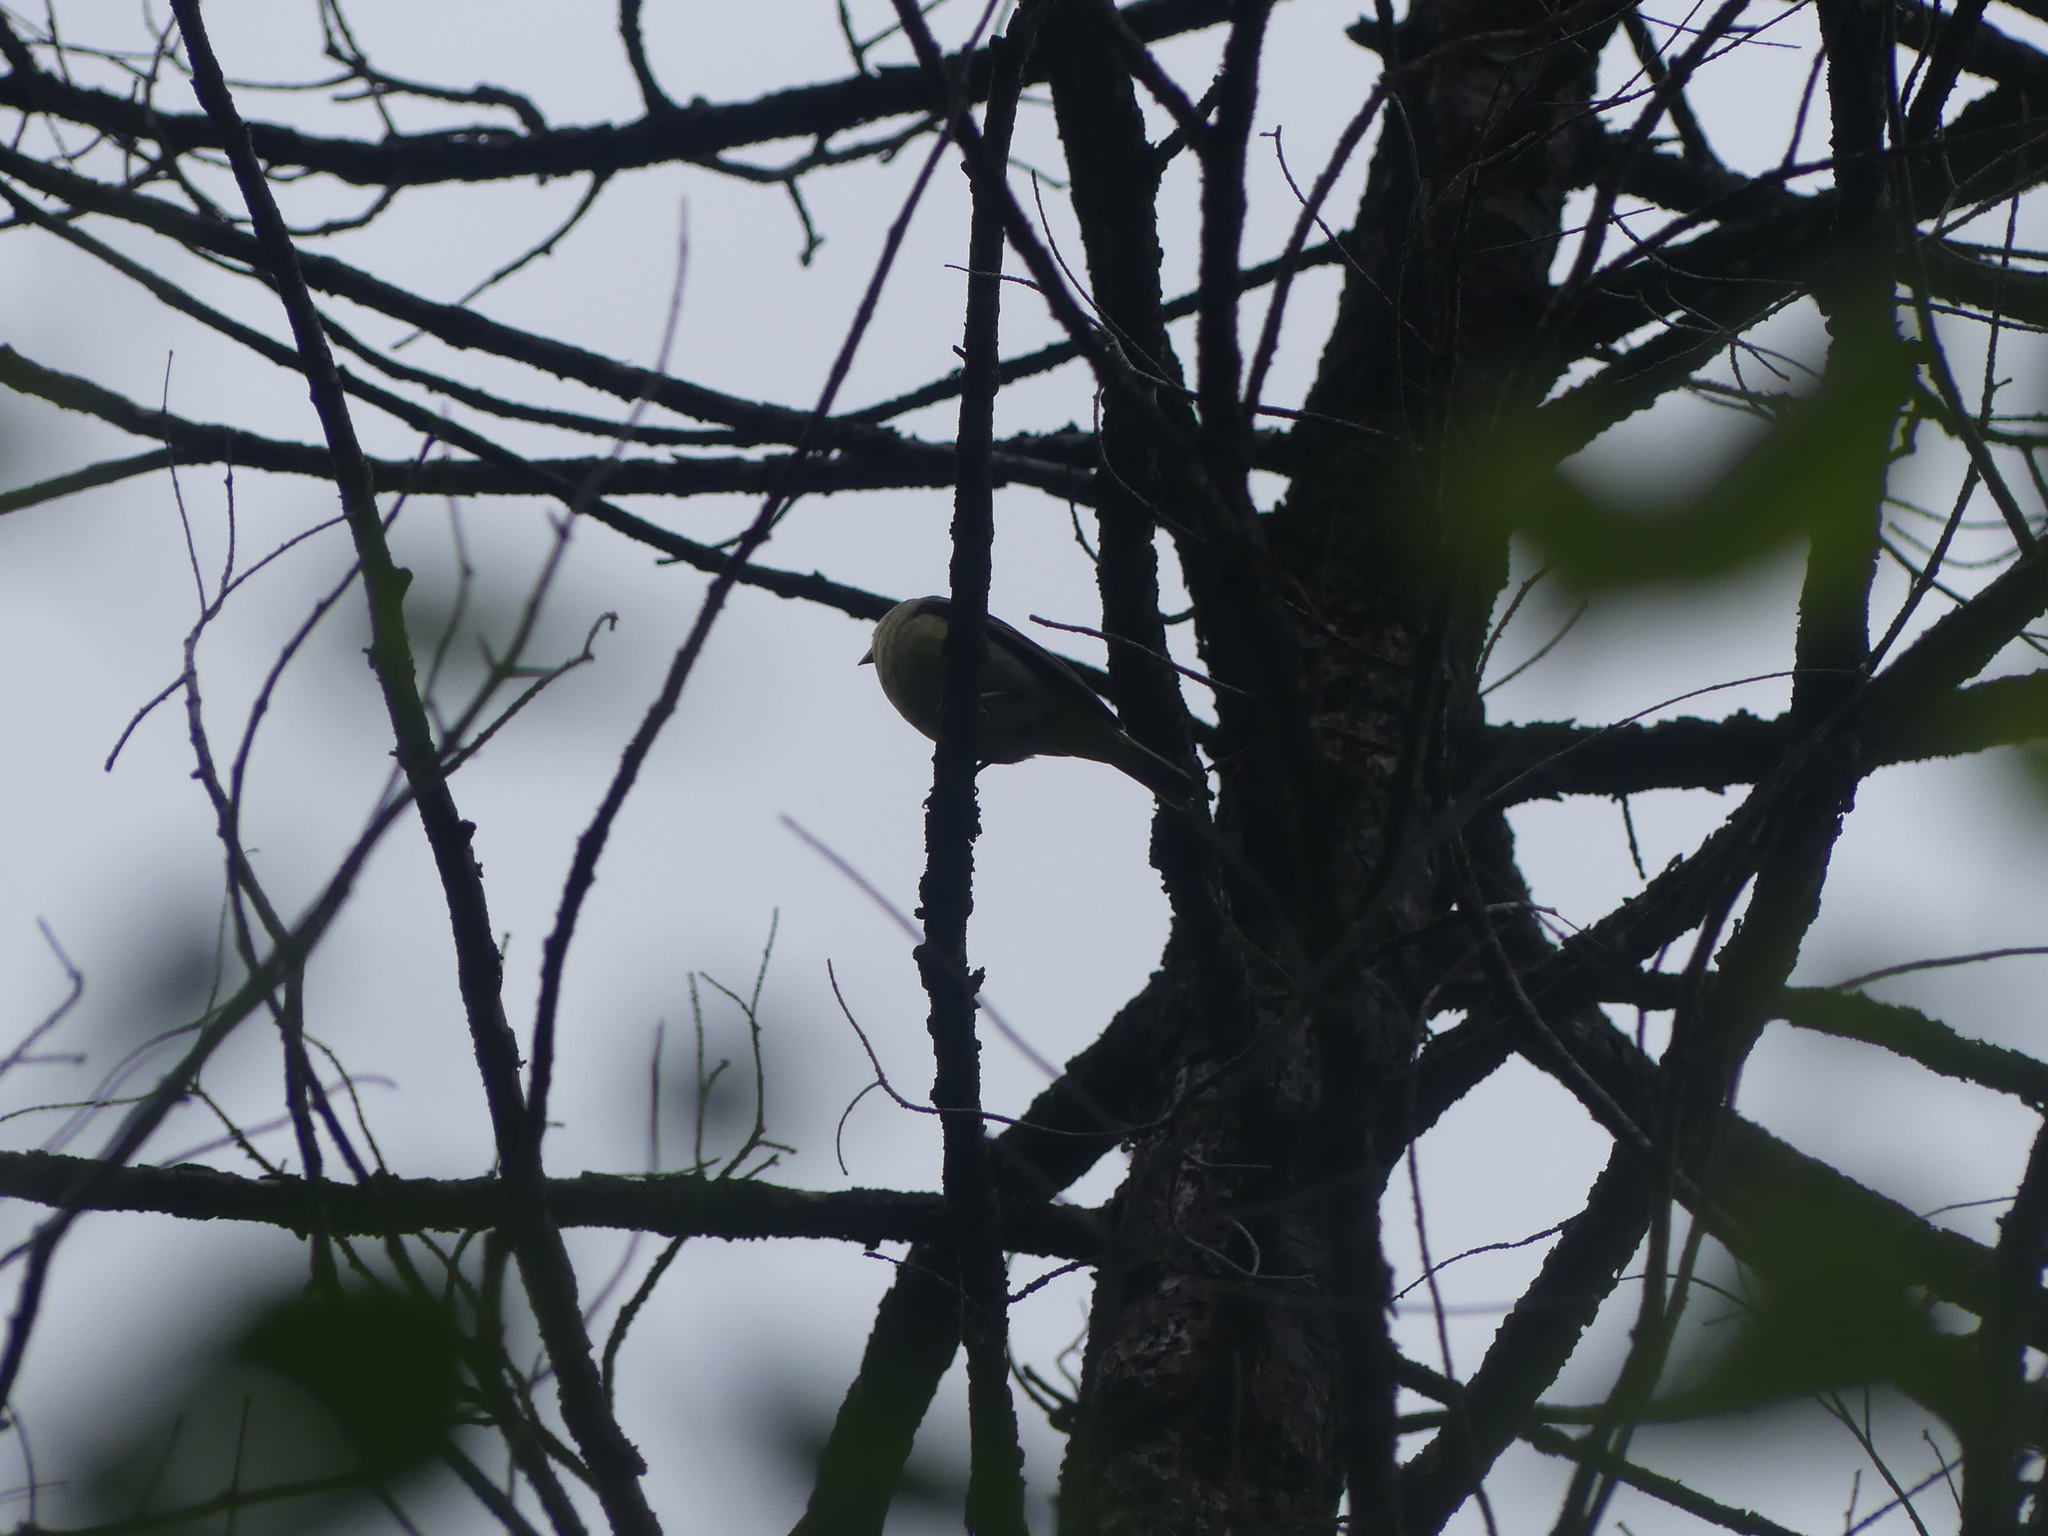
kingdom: Animalia
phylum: Chordata
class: Aves
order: Passeriformes
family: Cardinalidae
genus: Piranga
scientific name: Piranga ludoviciana
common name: Western tanager
